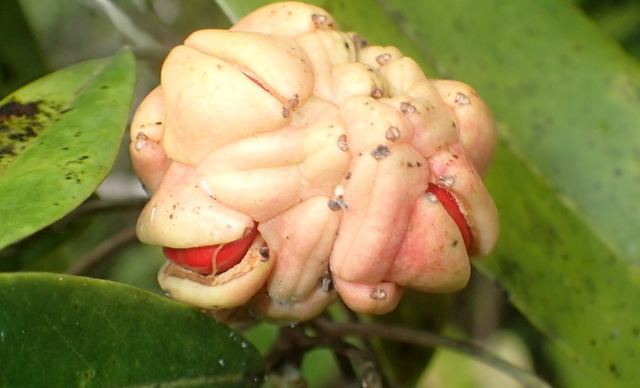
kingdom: Plantae
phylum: Tracheophyta
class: Magnoliopsida
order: Magnoliales
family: Magnoliaceae
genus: Magnolia
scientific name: Magnolia virginiana
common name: Swamp bay
